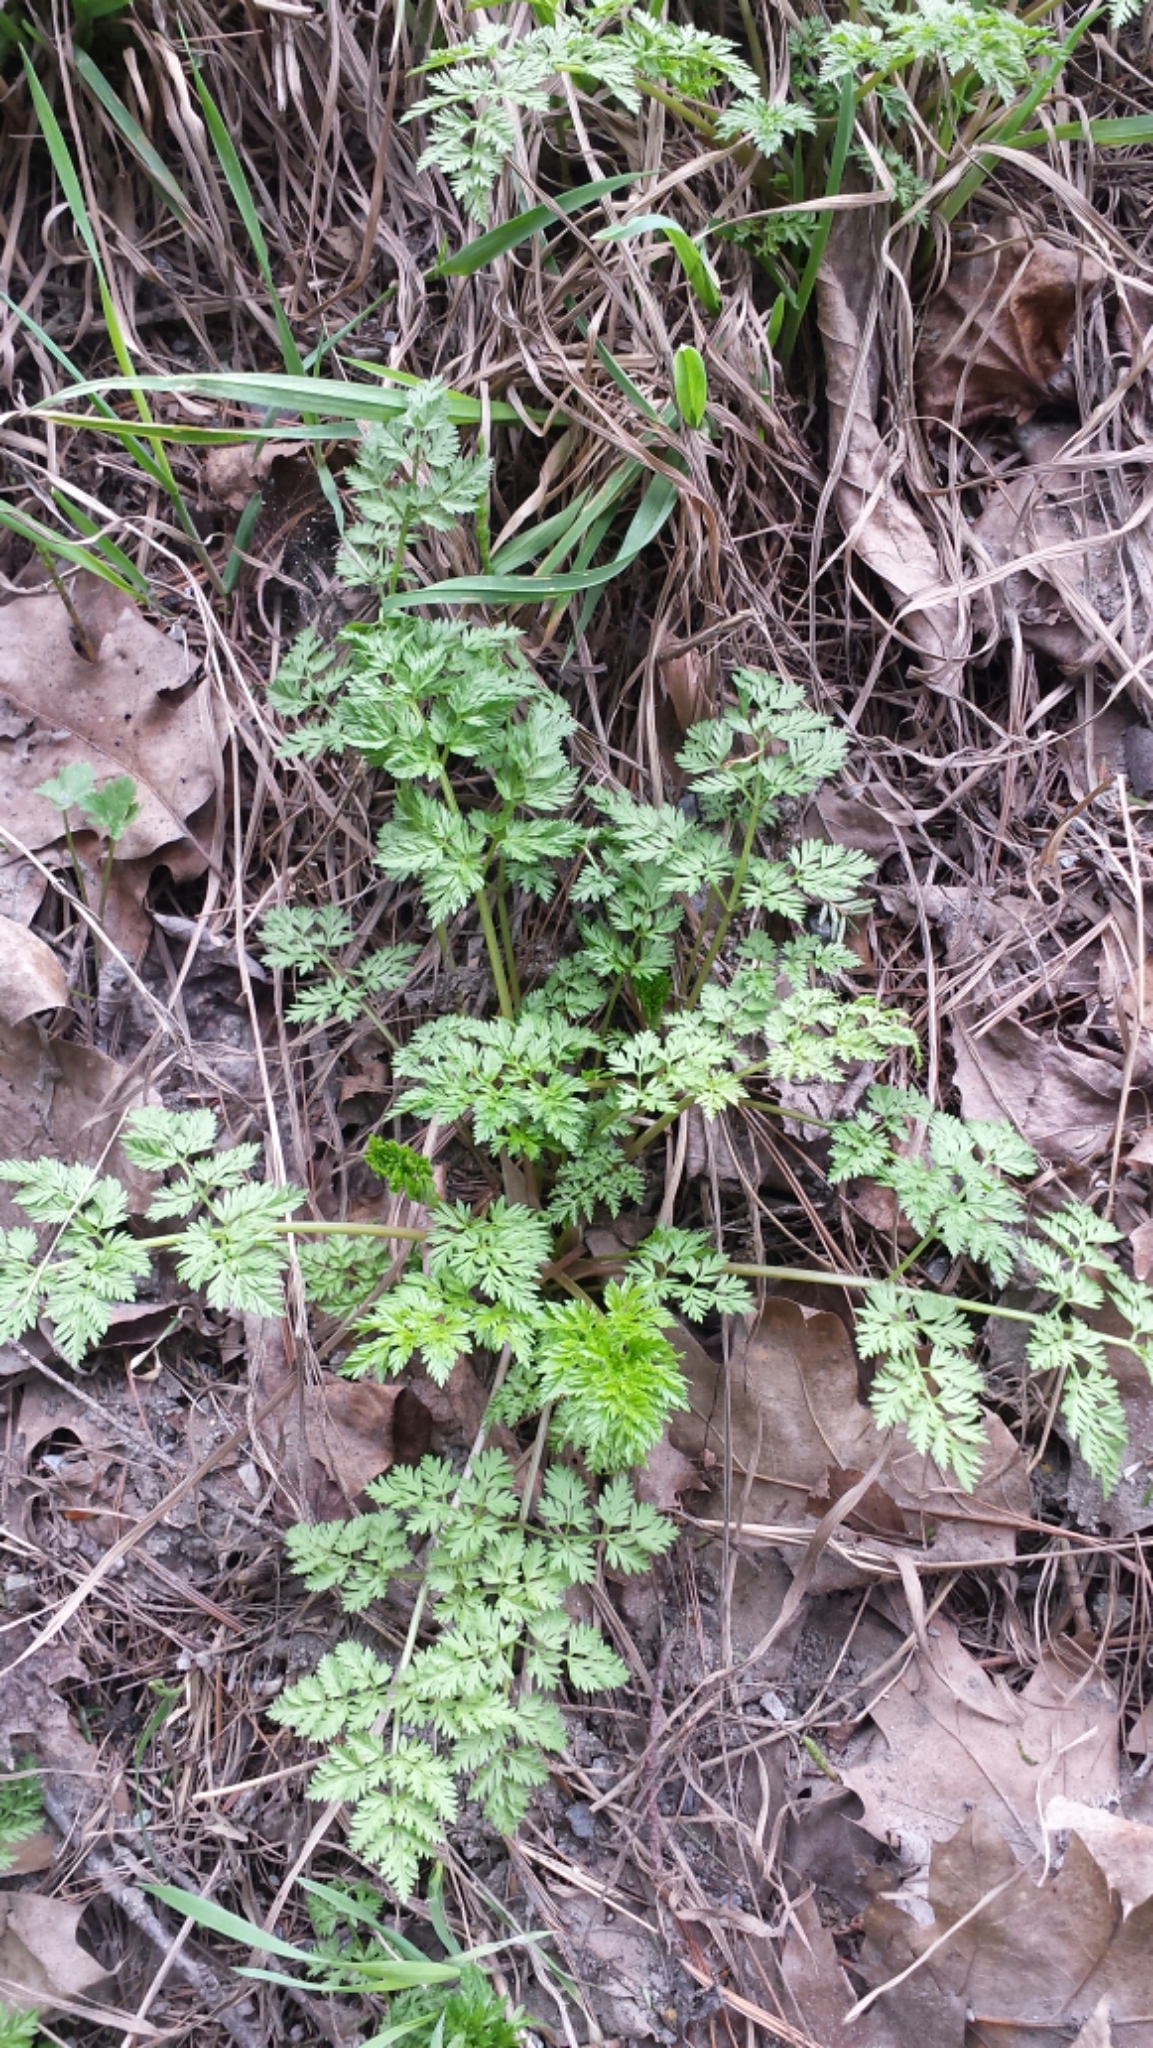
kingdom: Plantae
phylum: Tracheophyta
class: Magnoliopsida
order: Apiales
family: Apiaceae
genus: Anthriscus
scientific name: Anthriscus sylvestris
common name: Cow parsley
